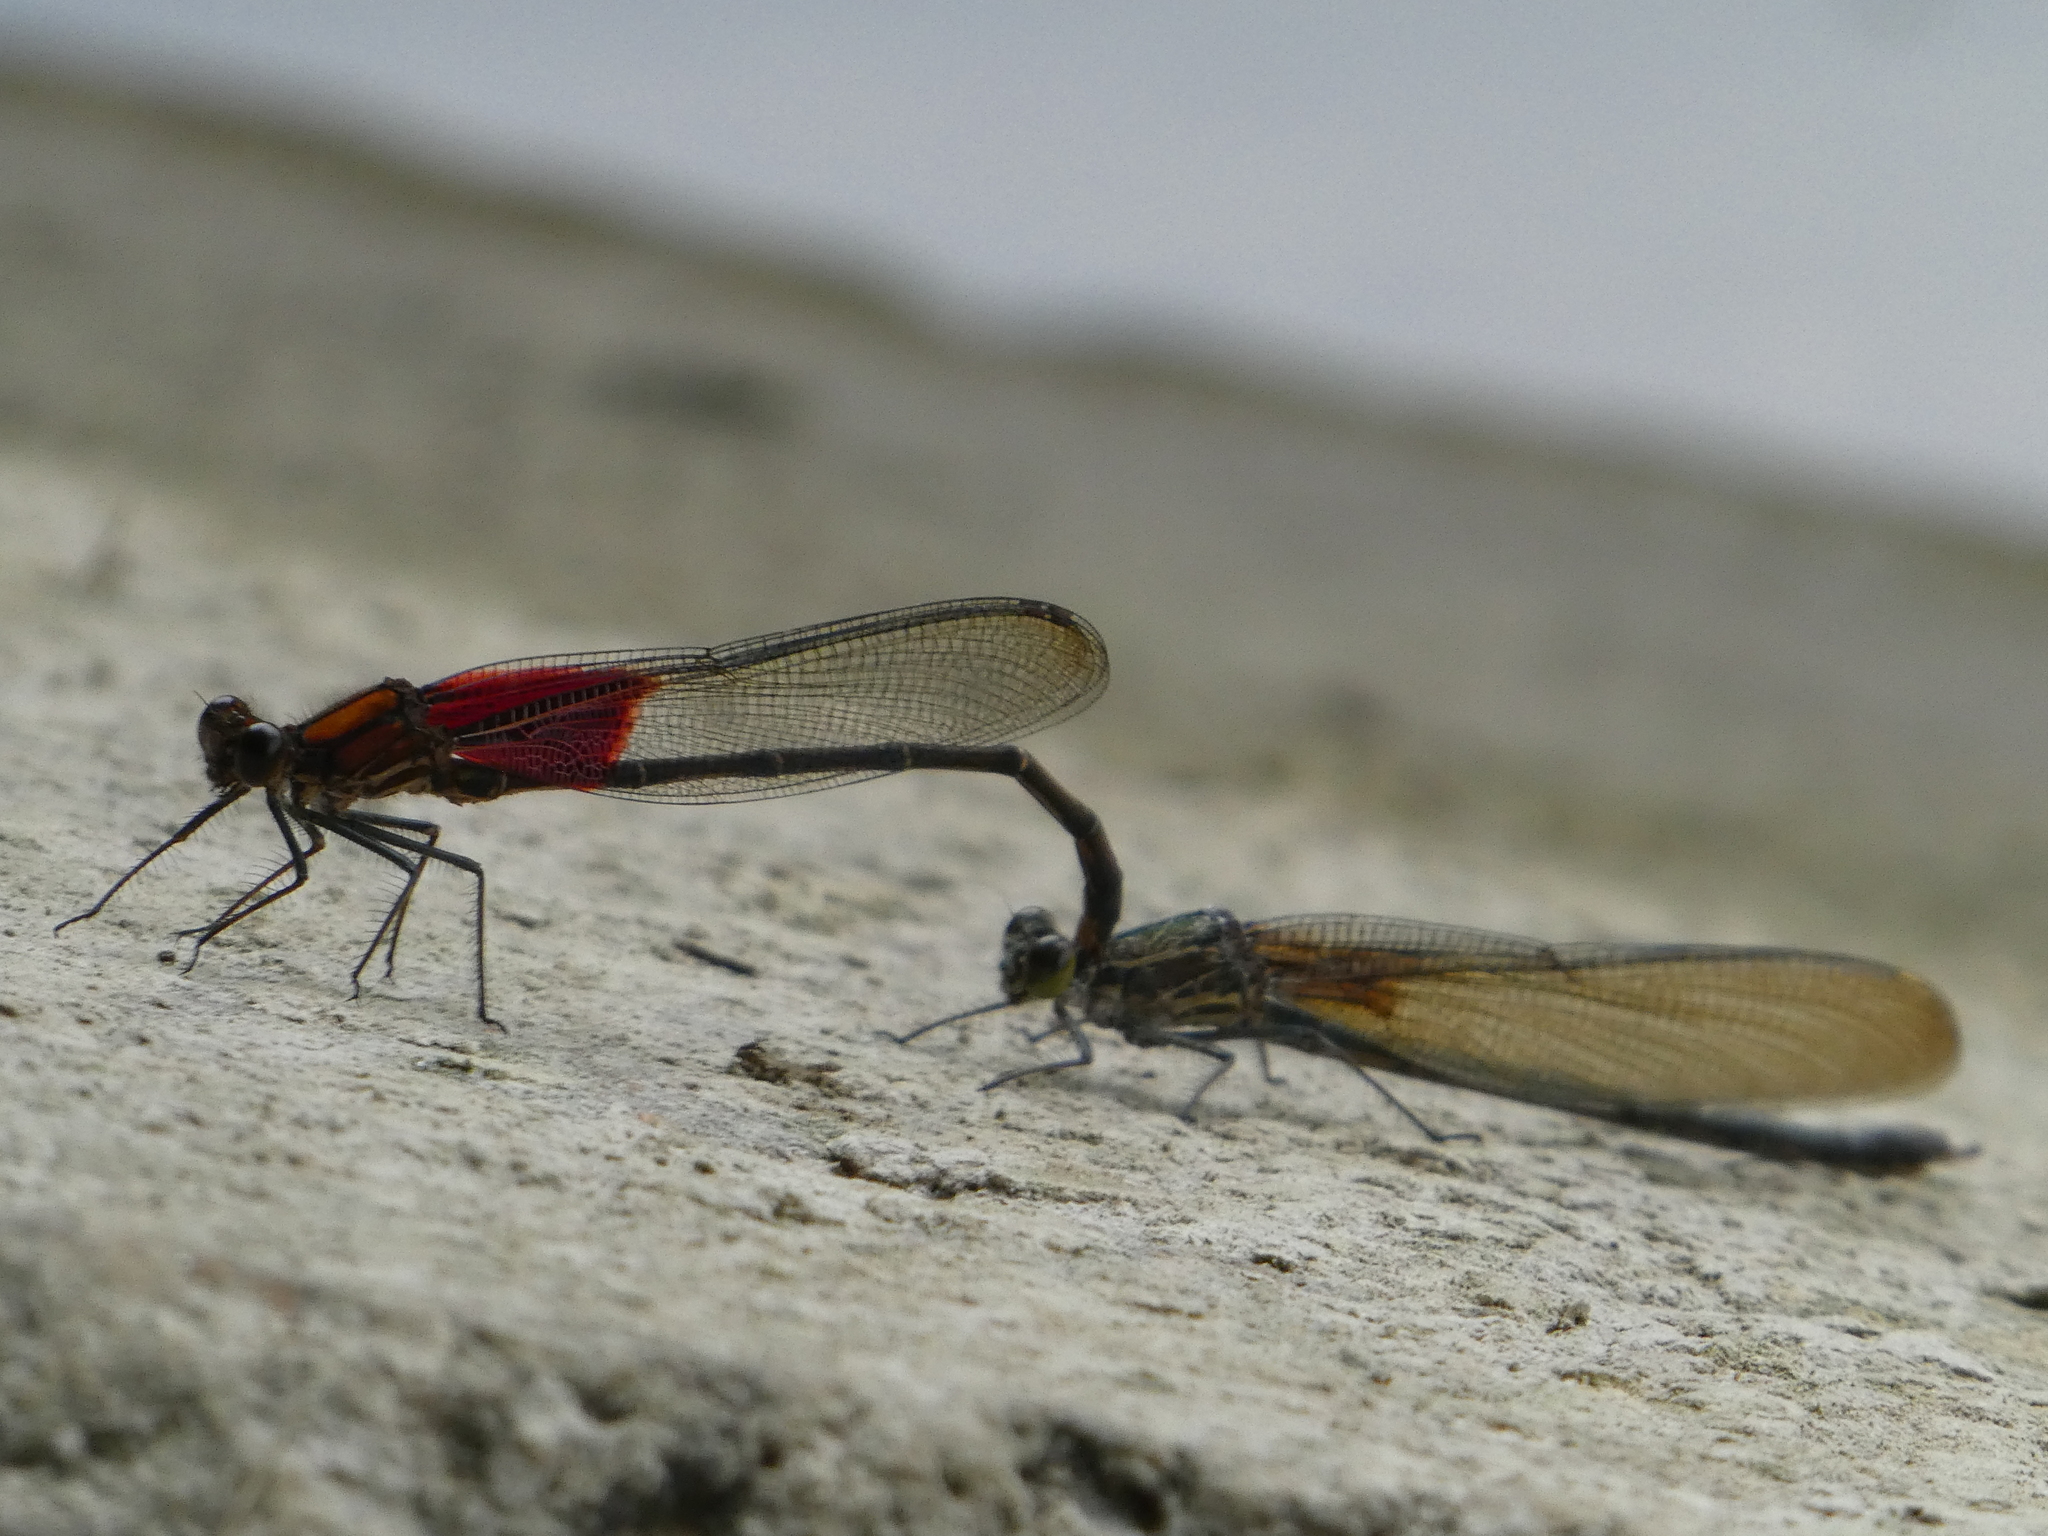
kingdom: Animalia
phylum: Arthropoda
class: Insecta
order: Odonata
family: Calopterygidae
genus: Hetaerina
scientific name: Hetaerina americana
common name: American rubyspot
